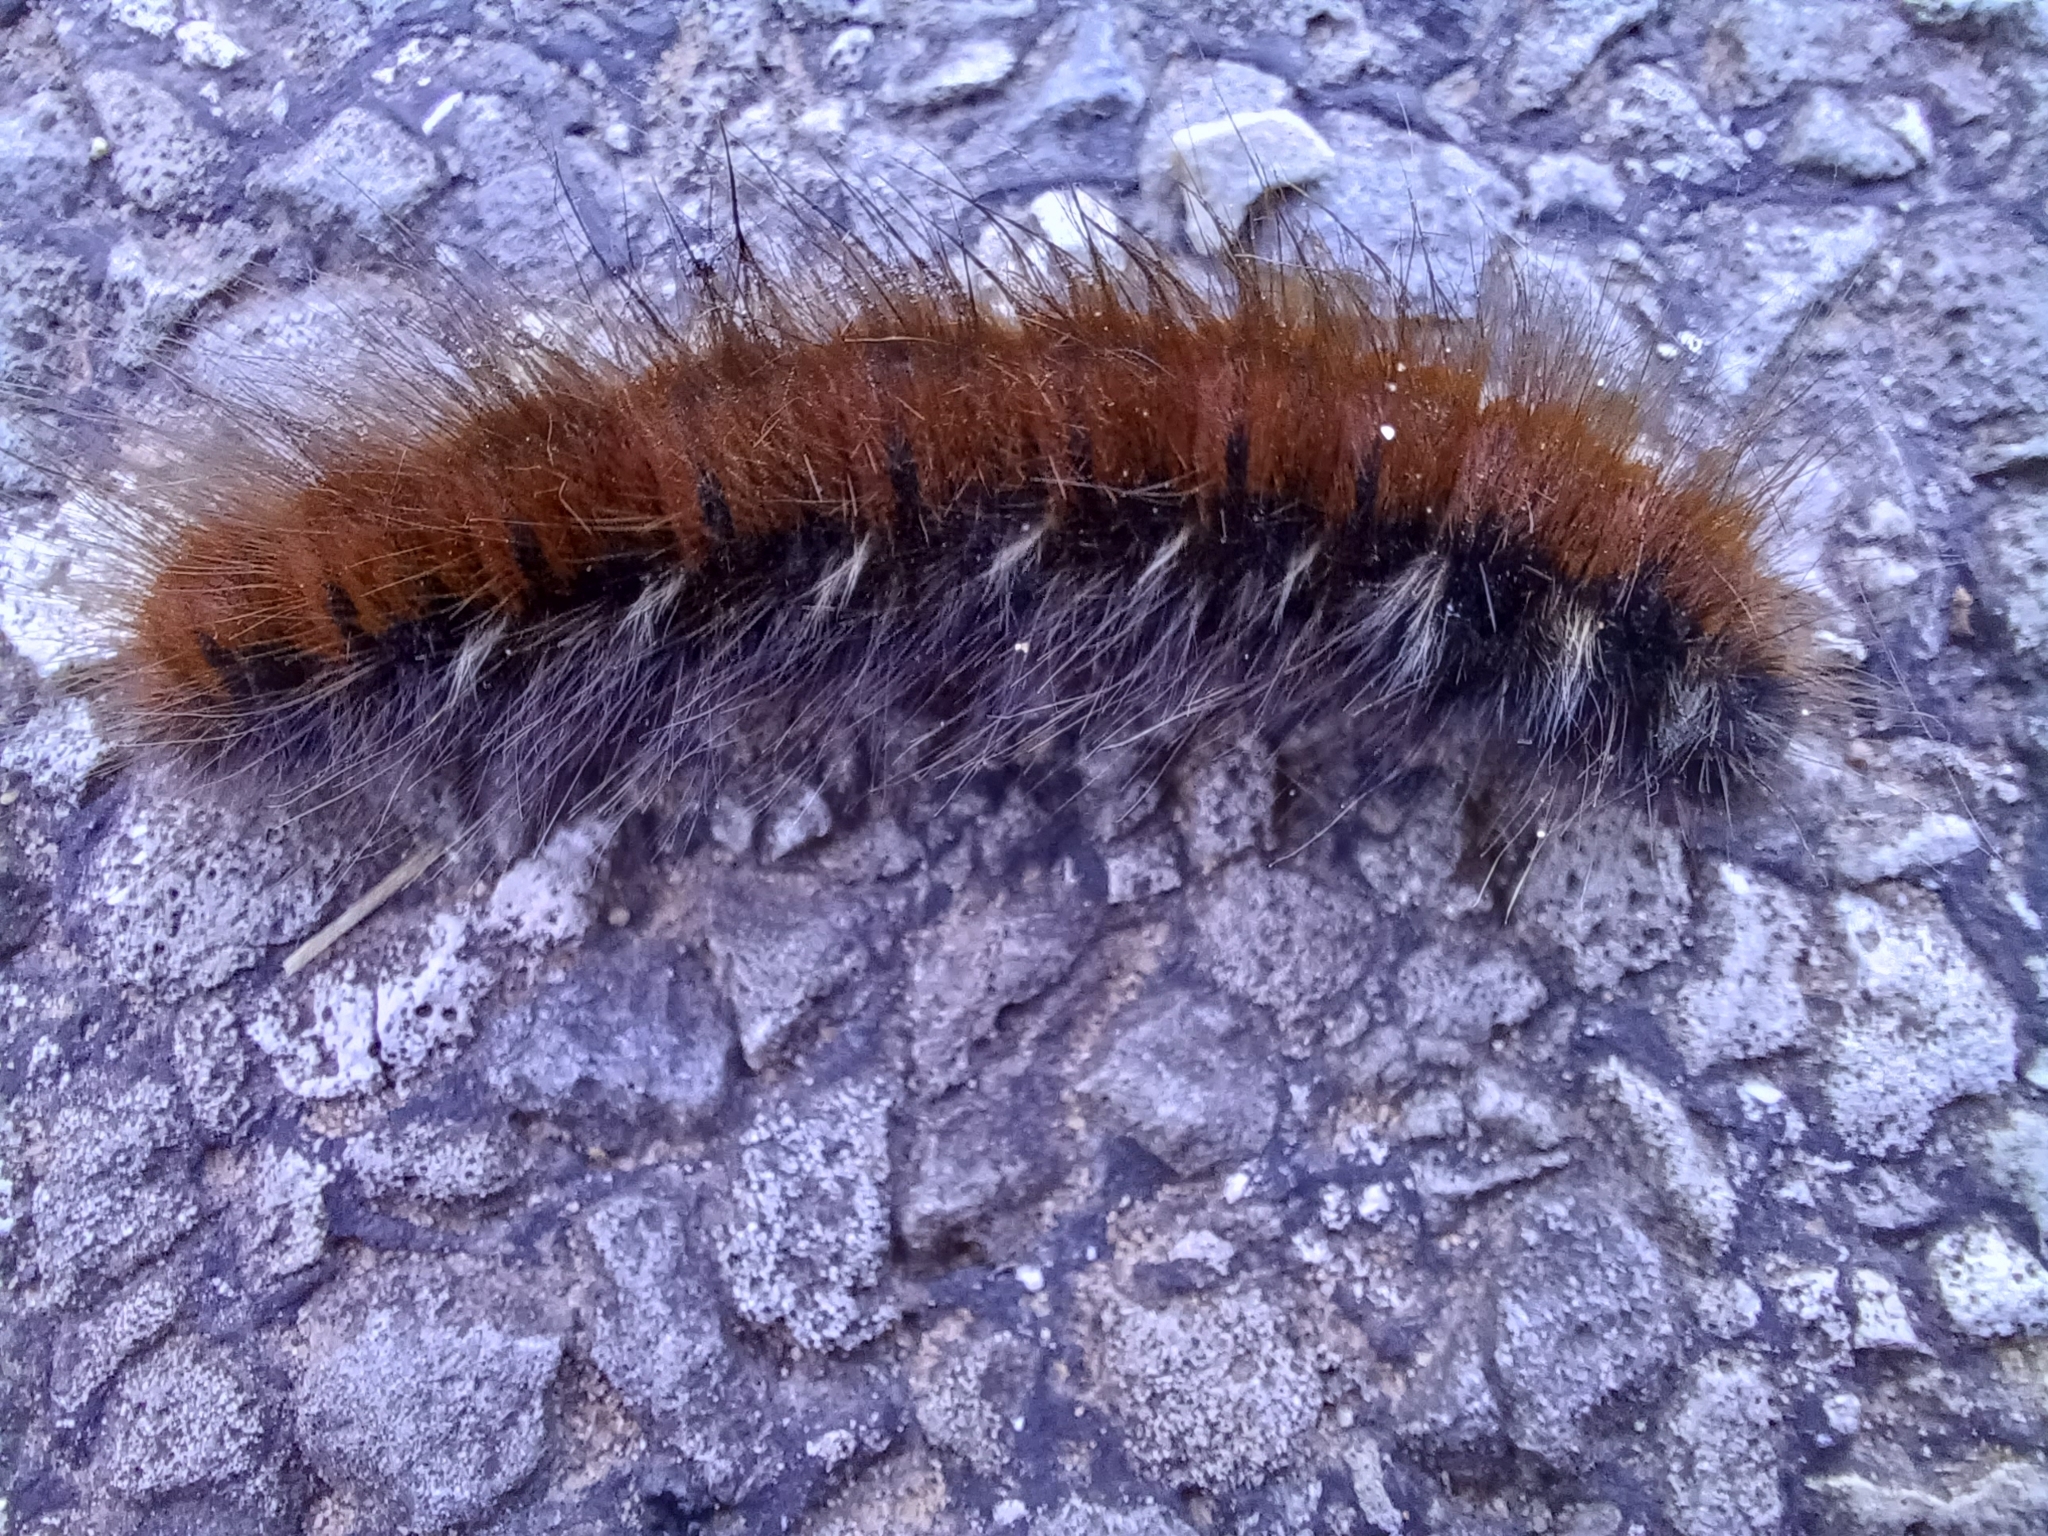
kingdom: Animalia
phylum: Arthropoda
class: Insecta
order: Lepidoptera
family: Lasiocampidae
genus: Macrothylacia
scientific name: Macrothylacia rubi
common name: Fox moth
